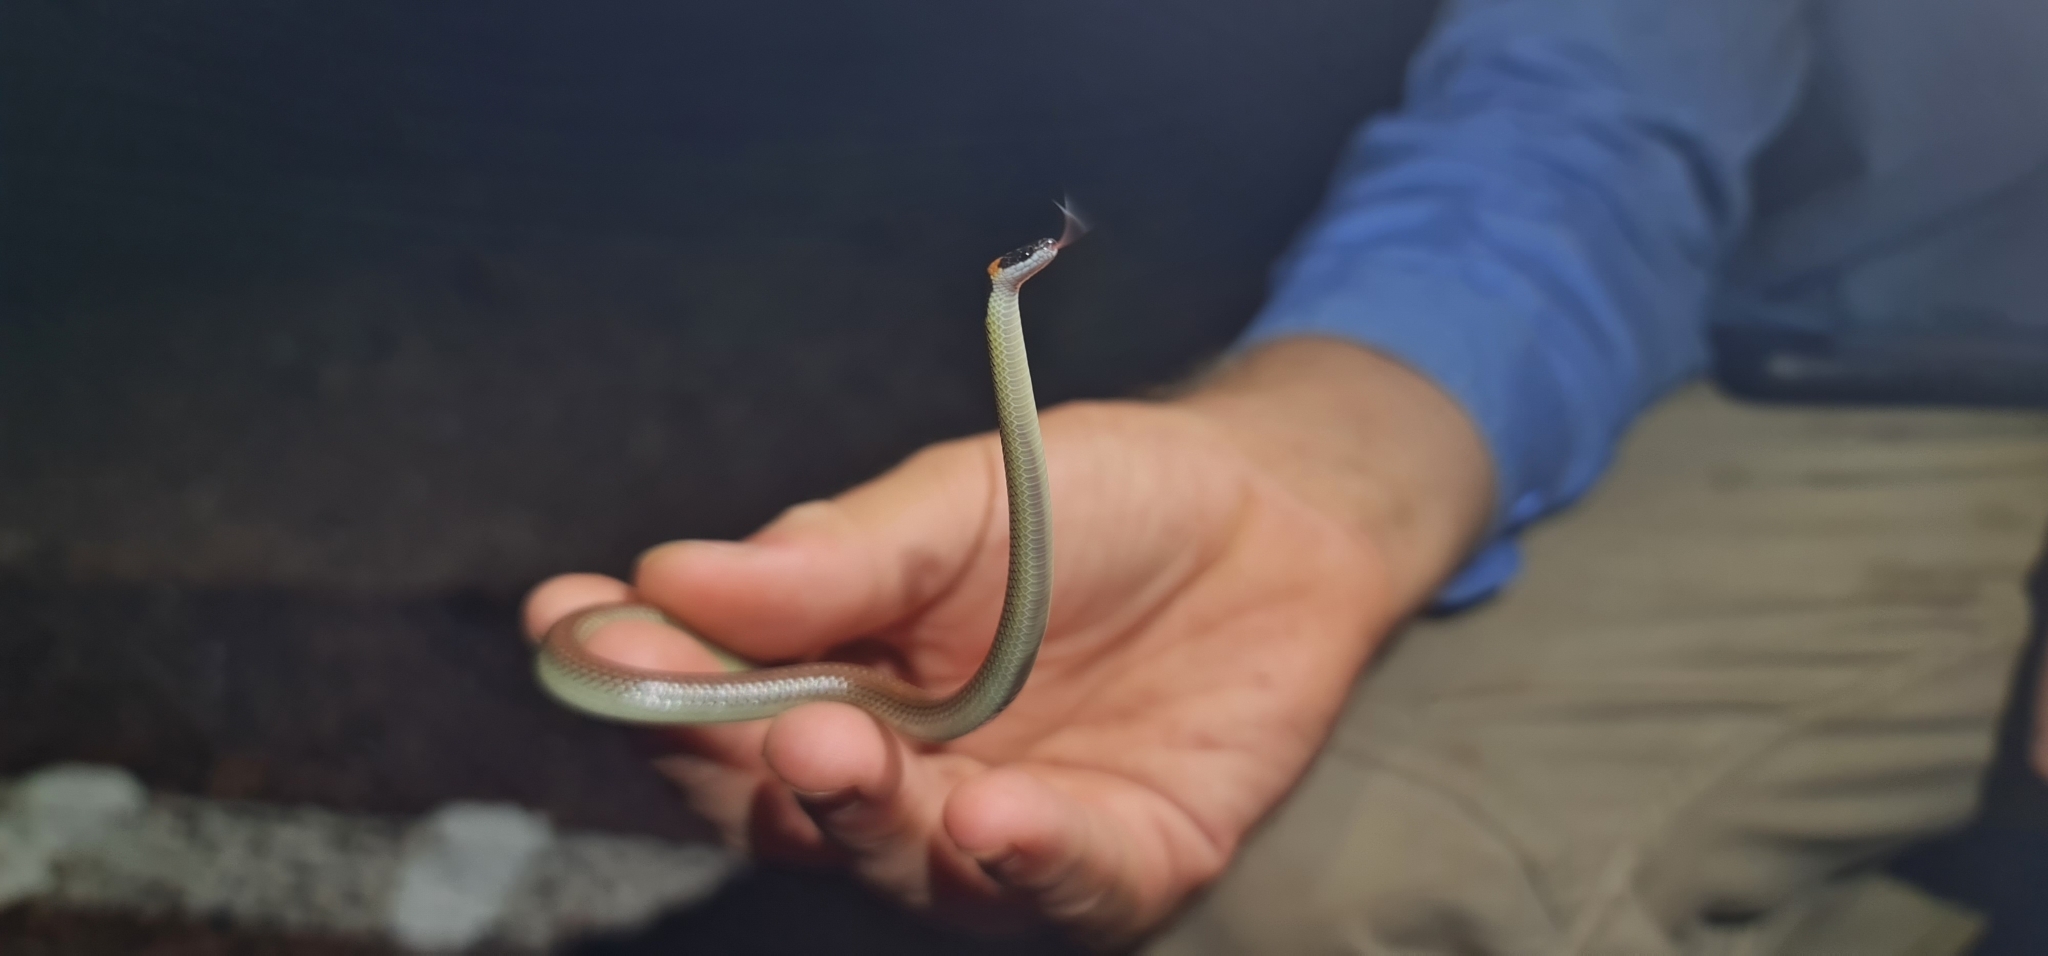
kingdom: Animalia
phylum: Chordata
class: Squamata
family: Elapidae
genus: Furina
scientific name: Furina ornata
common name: Orange-naped snake
